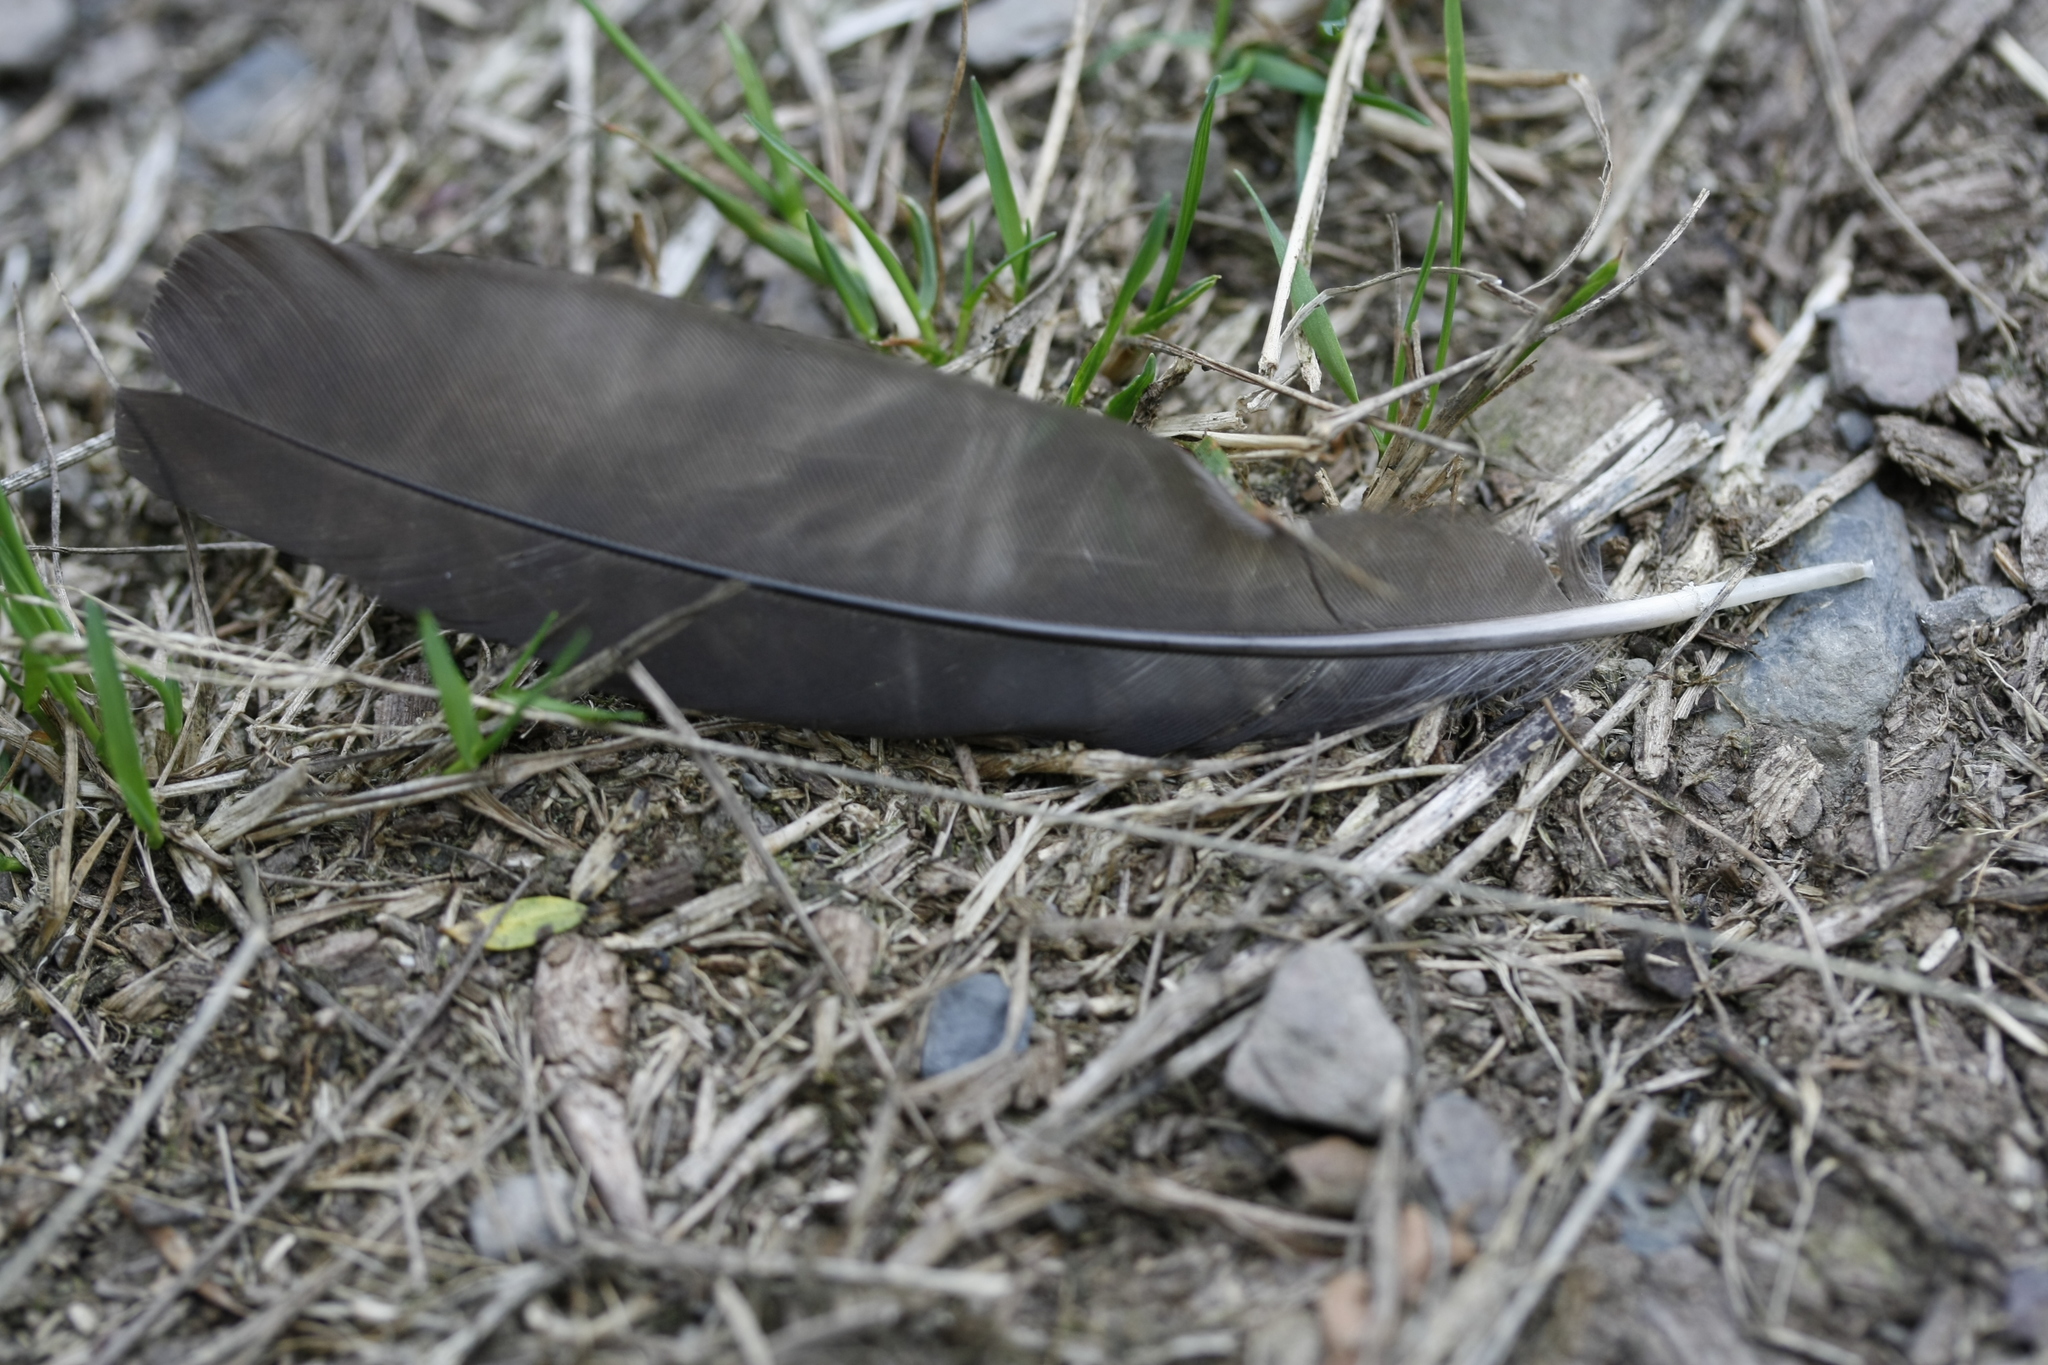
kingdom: Animalia
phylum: Chordata
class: Aves
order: Passeriformes
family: Turdidae
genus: Turdus
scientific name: Turdus merula
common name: Common blackbird
